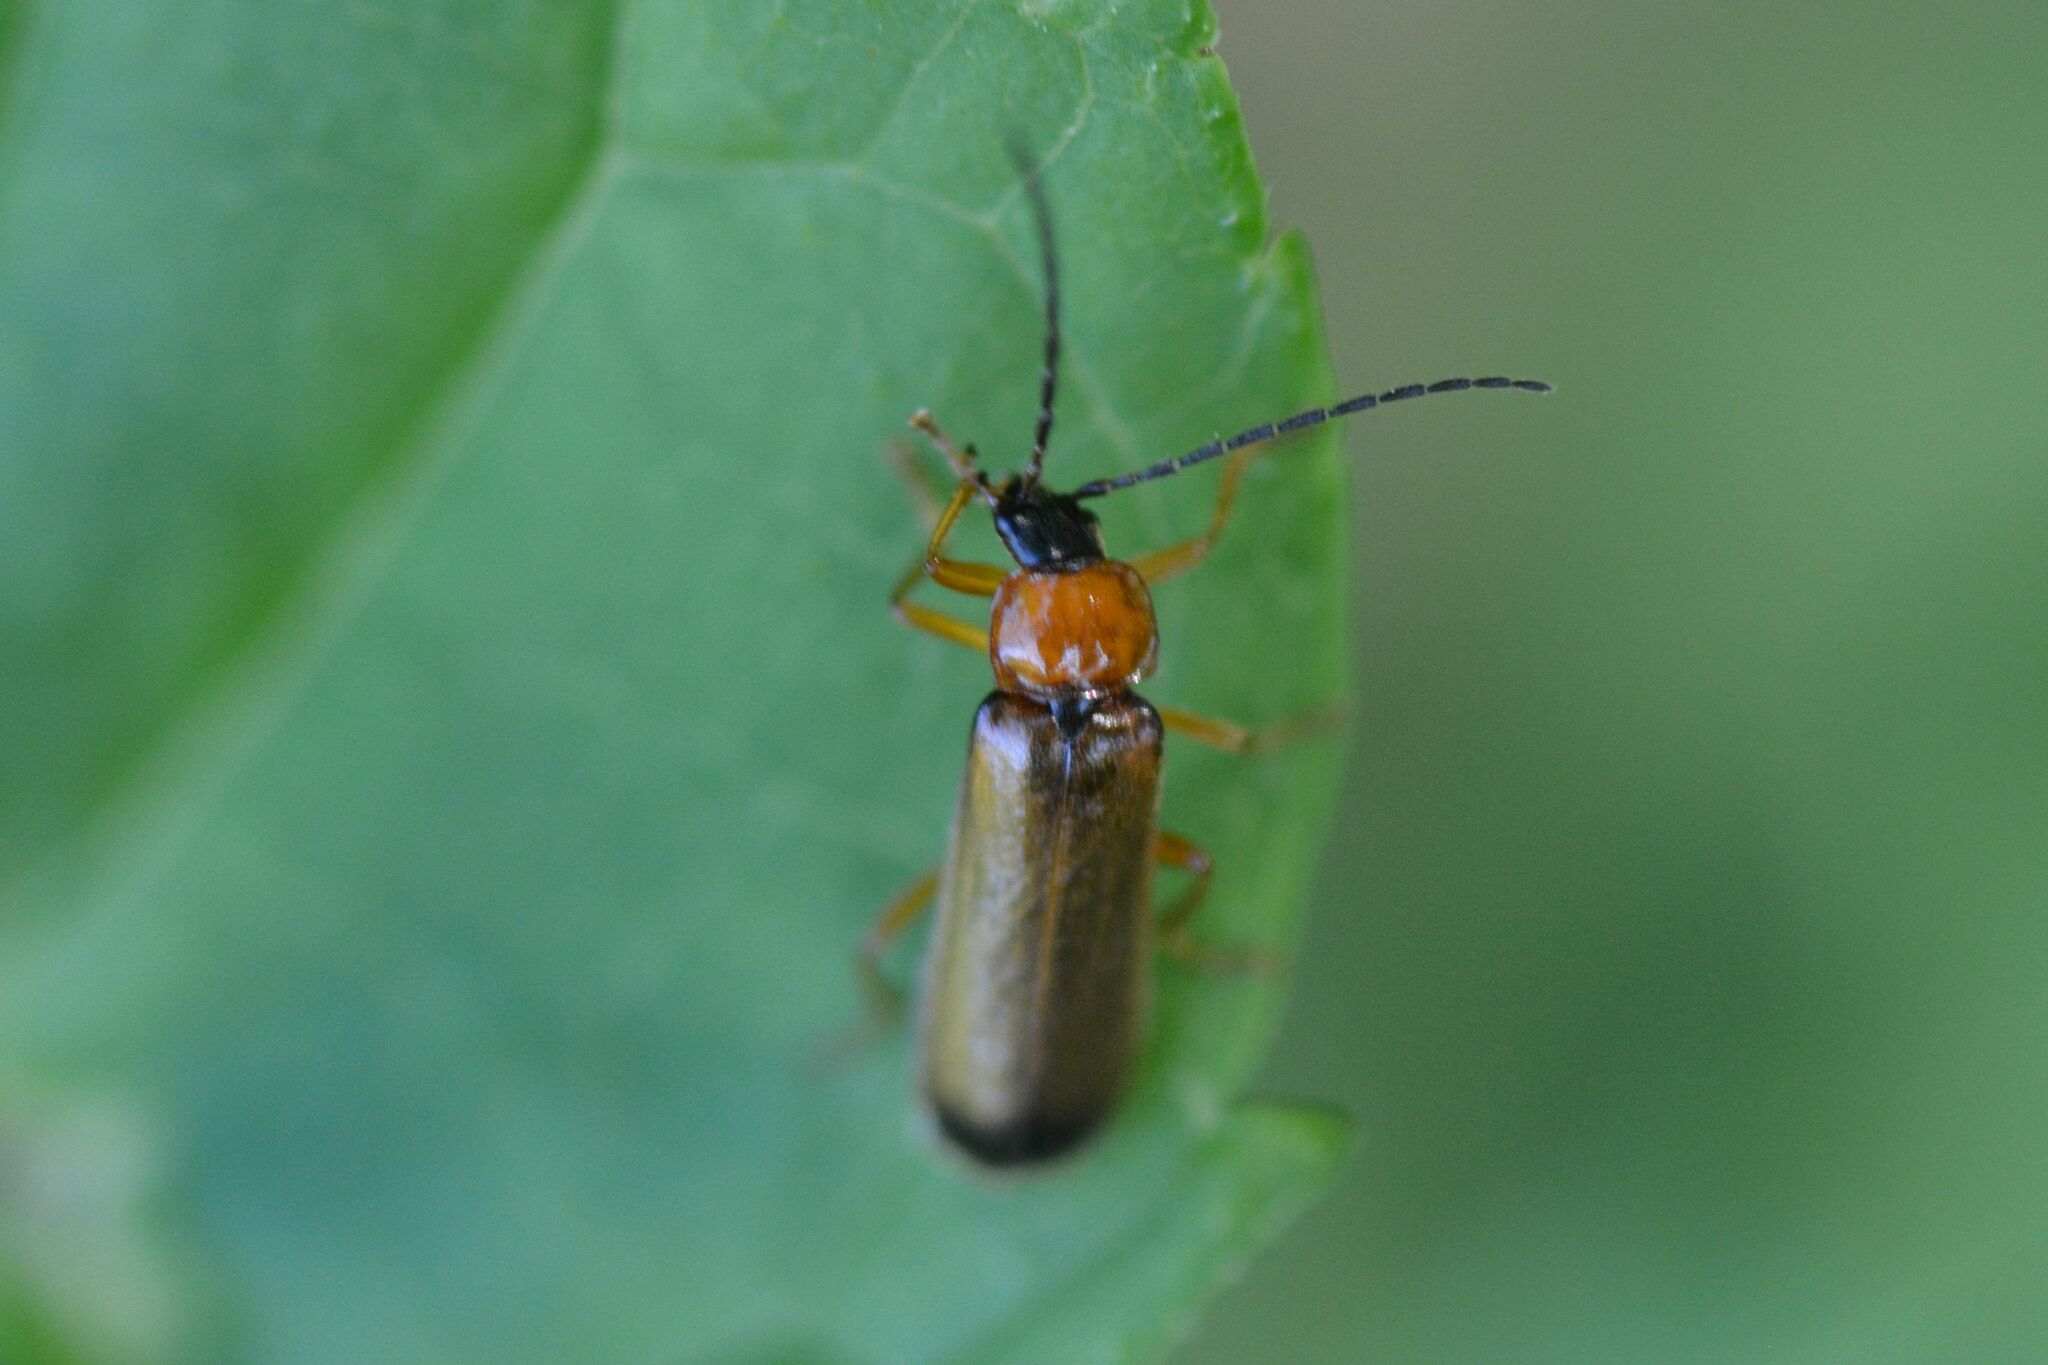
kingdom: Animalia
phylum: Arthropoda
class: Insecta
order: Coleoptera
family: Cantharidae
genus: Rhagonycha
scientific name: Rhagonycha lutea
